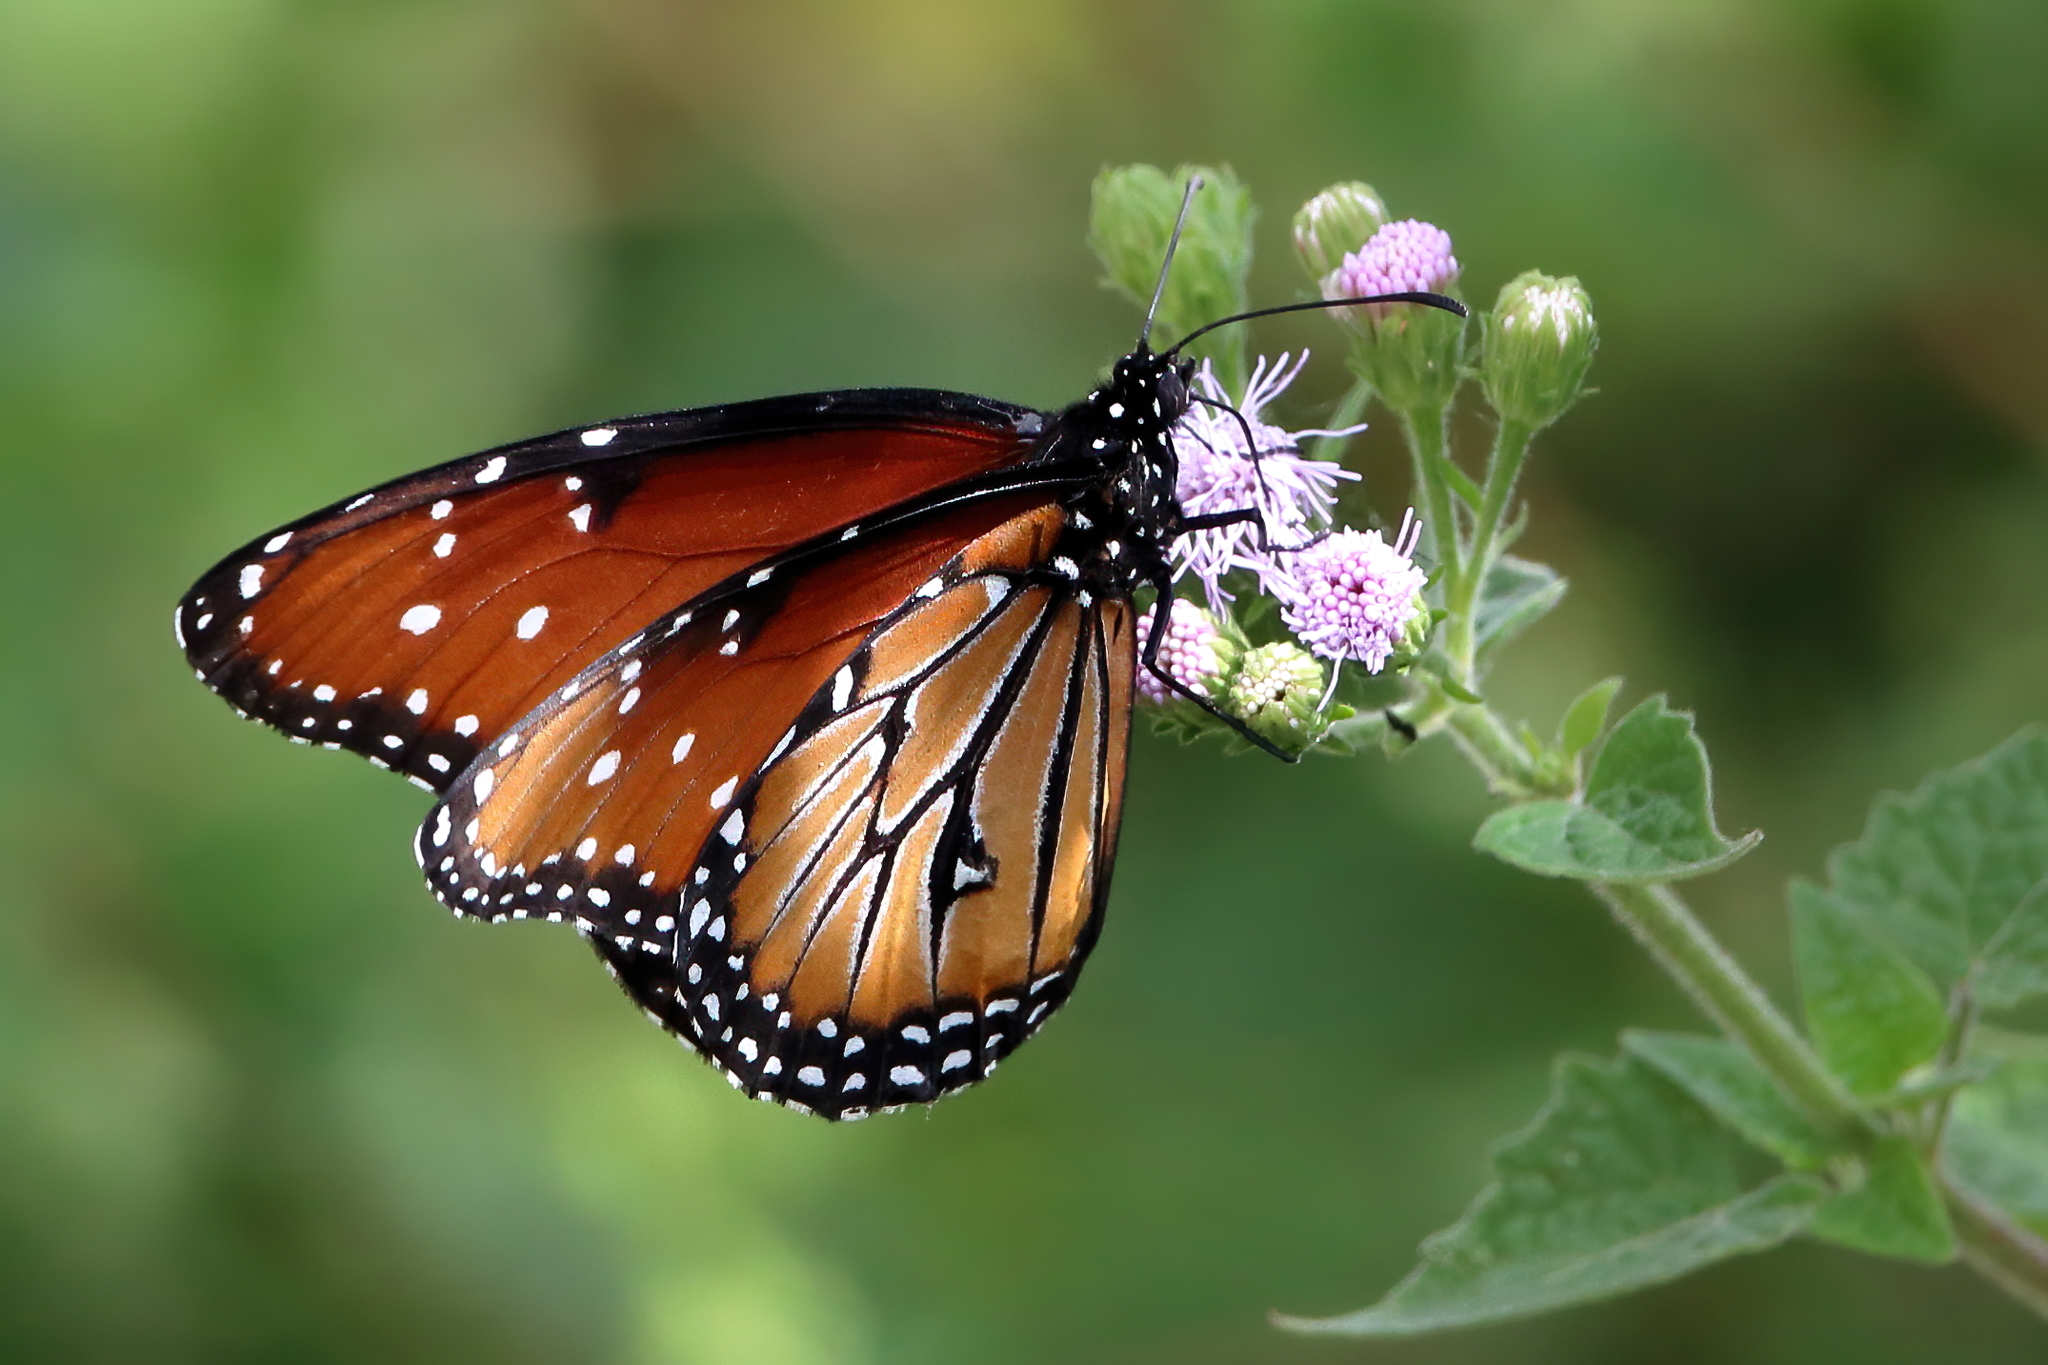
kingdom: Animalia
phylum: Arthropoda
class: Insecta
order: Lepidoptera
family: Nymphalidae
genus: Danaus
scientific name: Danaus gilippus
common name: Queen
